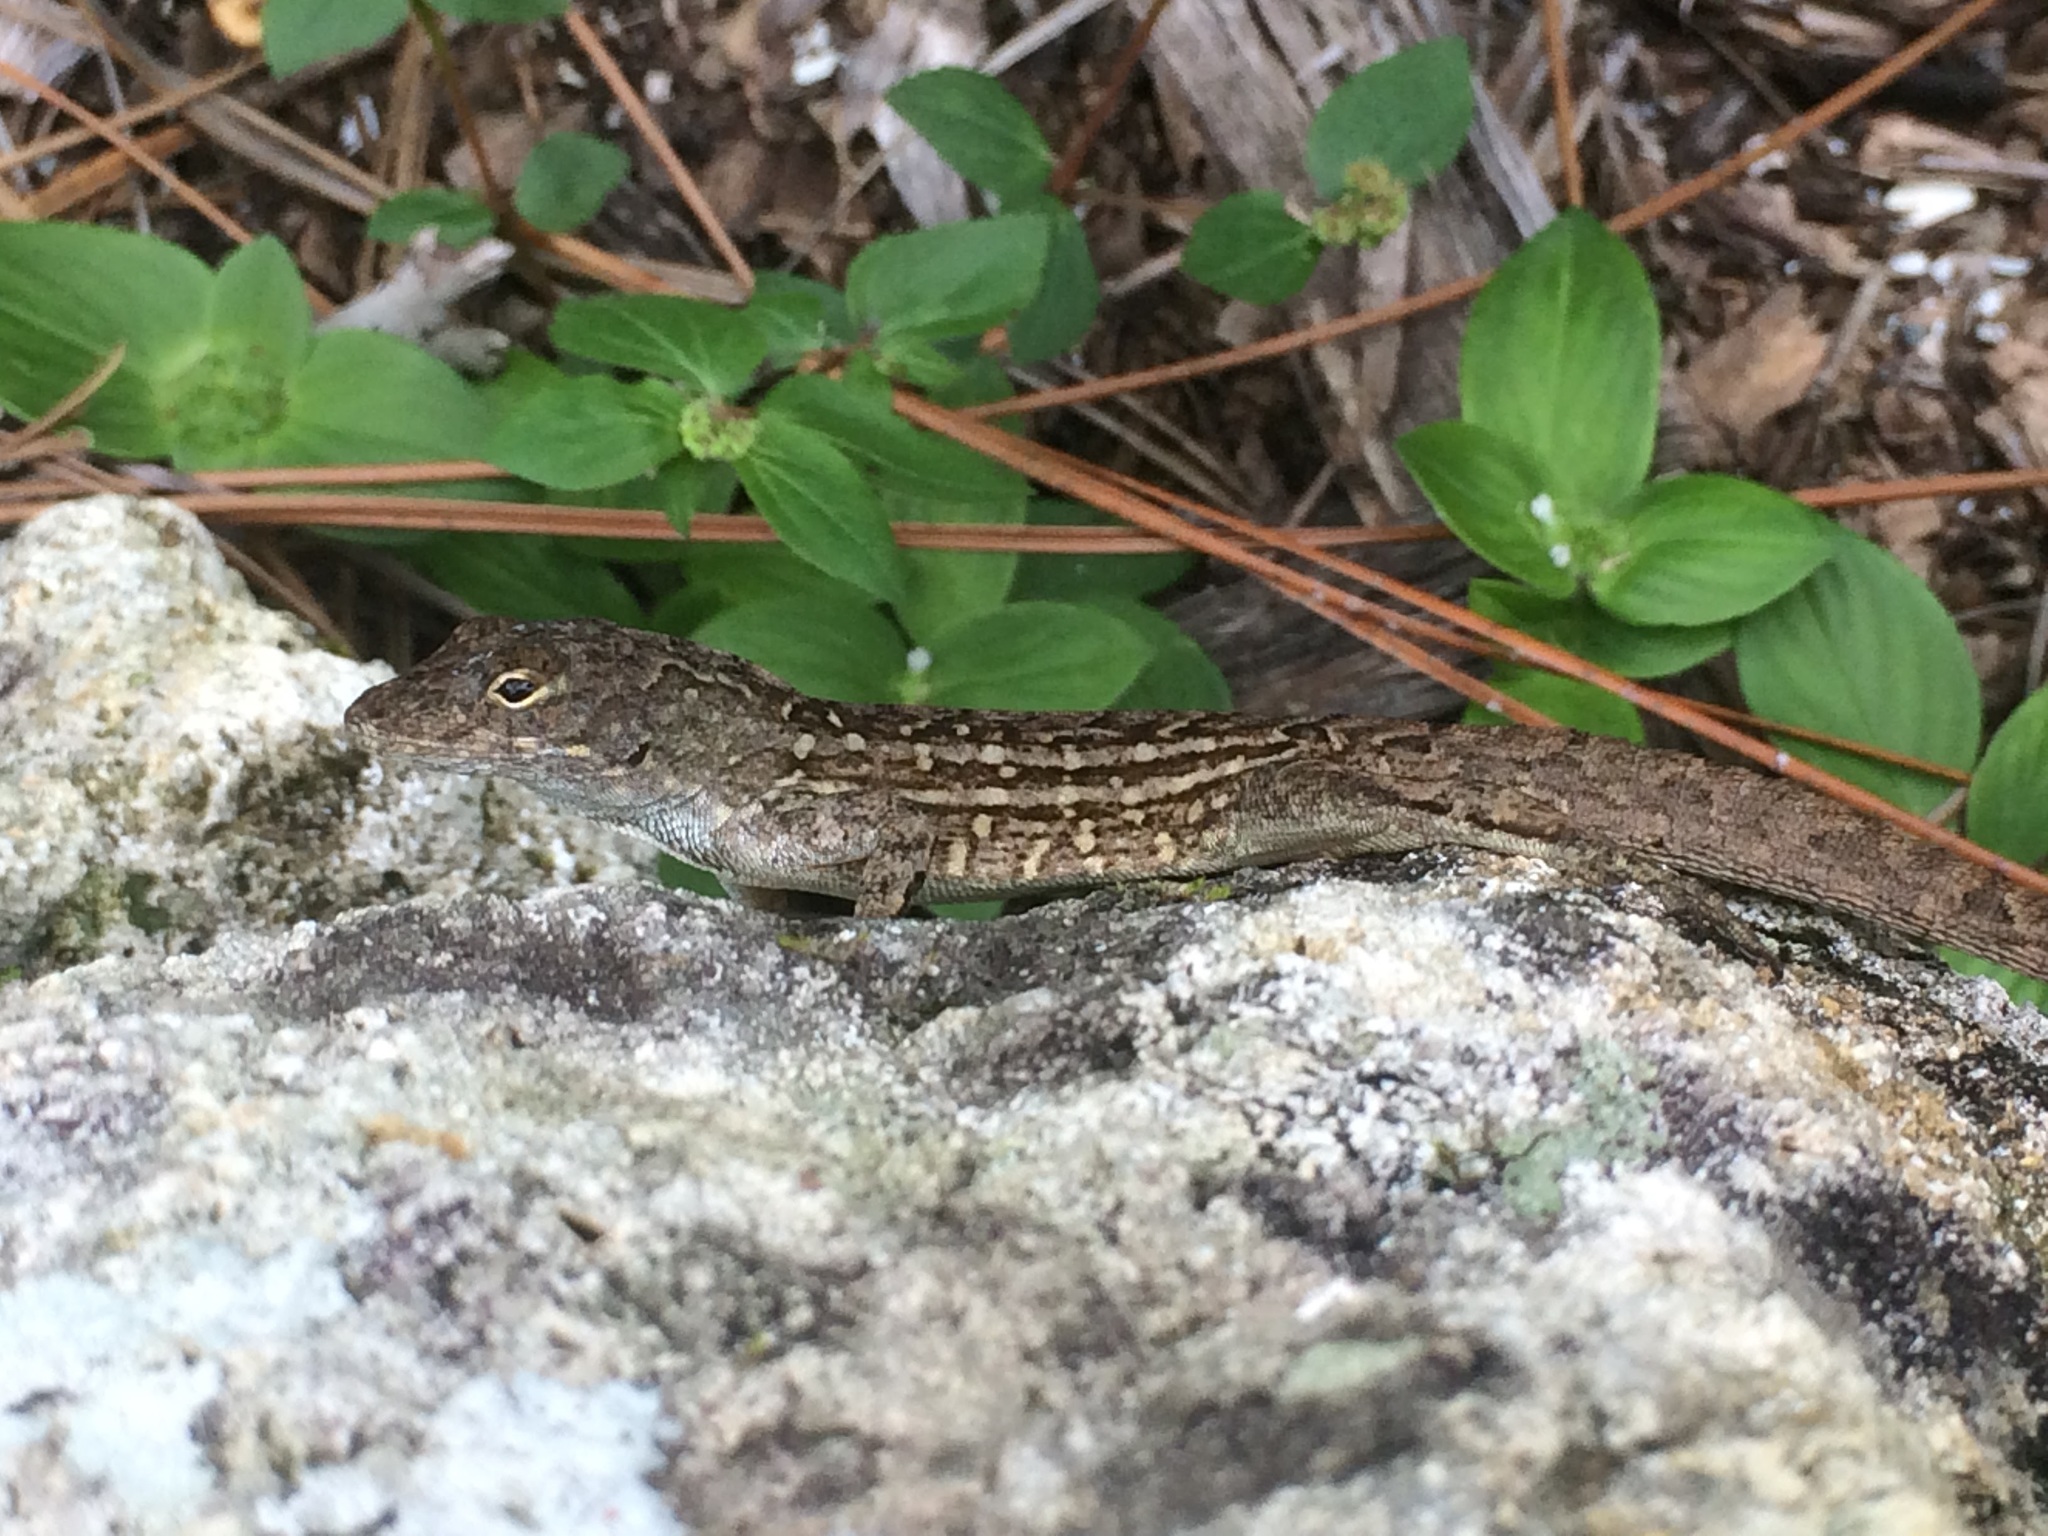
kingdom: Animalia
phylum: Chordata
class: Squamata
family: Dactyloidae
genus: Anolis
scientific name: Anolis sagrei
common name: Brown anole
